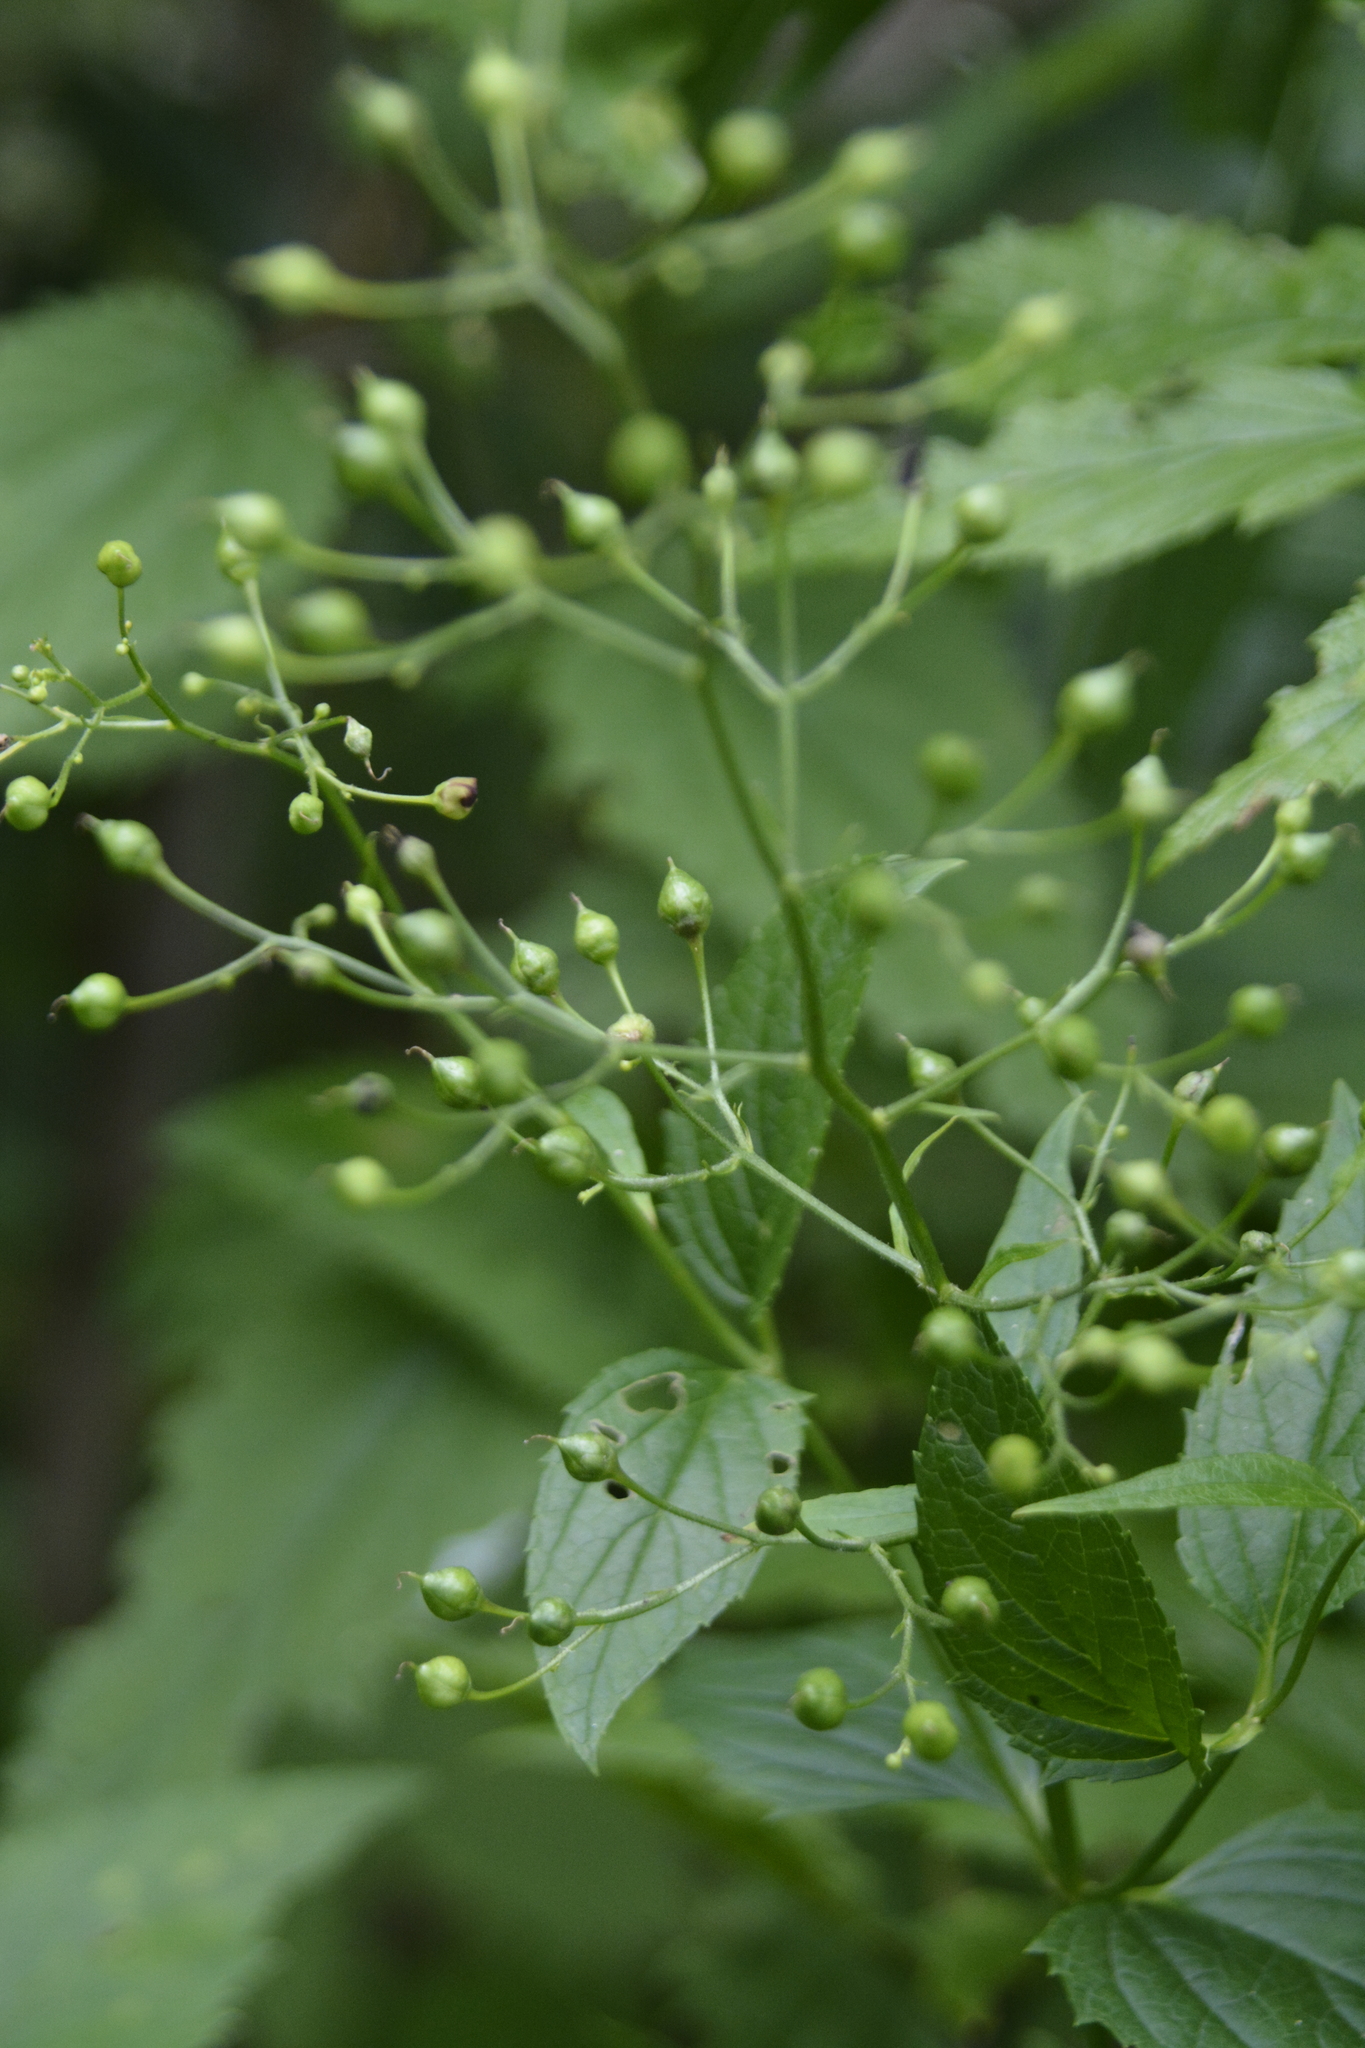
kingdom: Plantae
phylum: Tracheophyta
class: Magnoliopsida
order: Lamiales
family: Scrophulariaceae
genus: Scrophularia
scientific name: Scrophularia nodosa
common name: Common figwort
